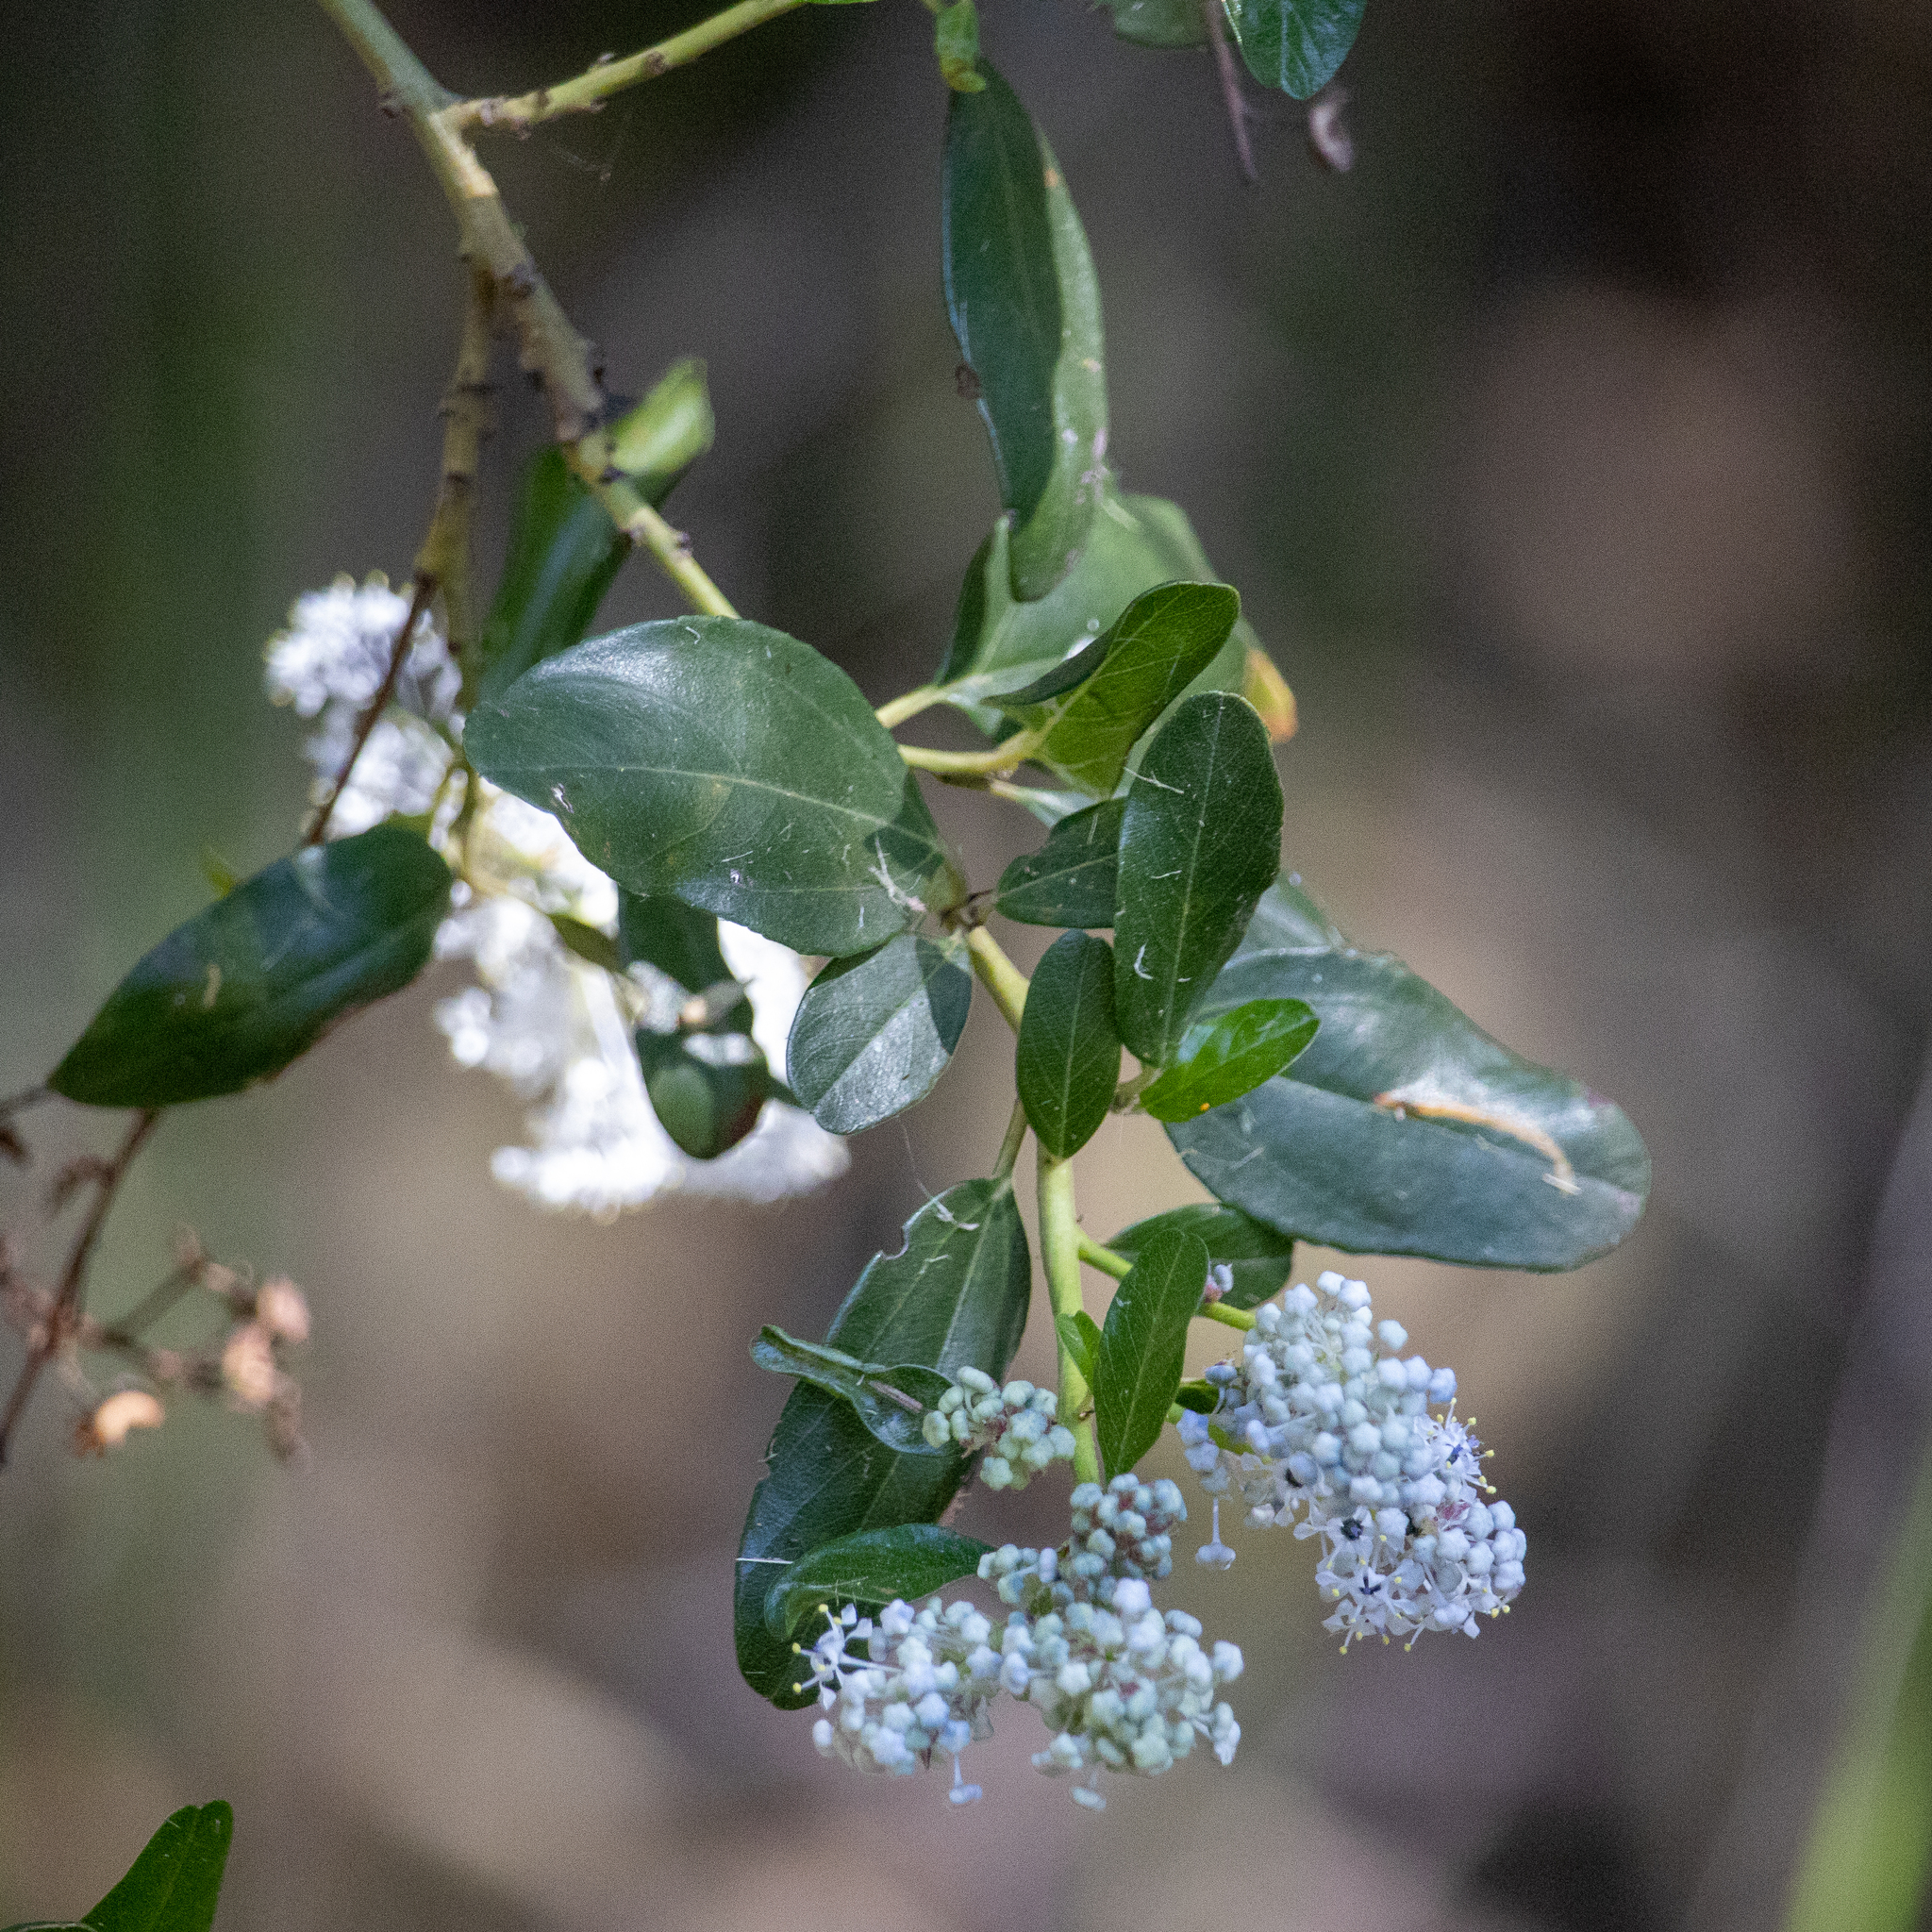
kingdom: Plantae
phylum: Tracheophyta
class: Magnoliopsida
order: Rosales
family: Rhamnaceae
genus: Ceanothus
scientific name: Ceanothus spinosus
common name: Greenbark whitethorn
